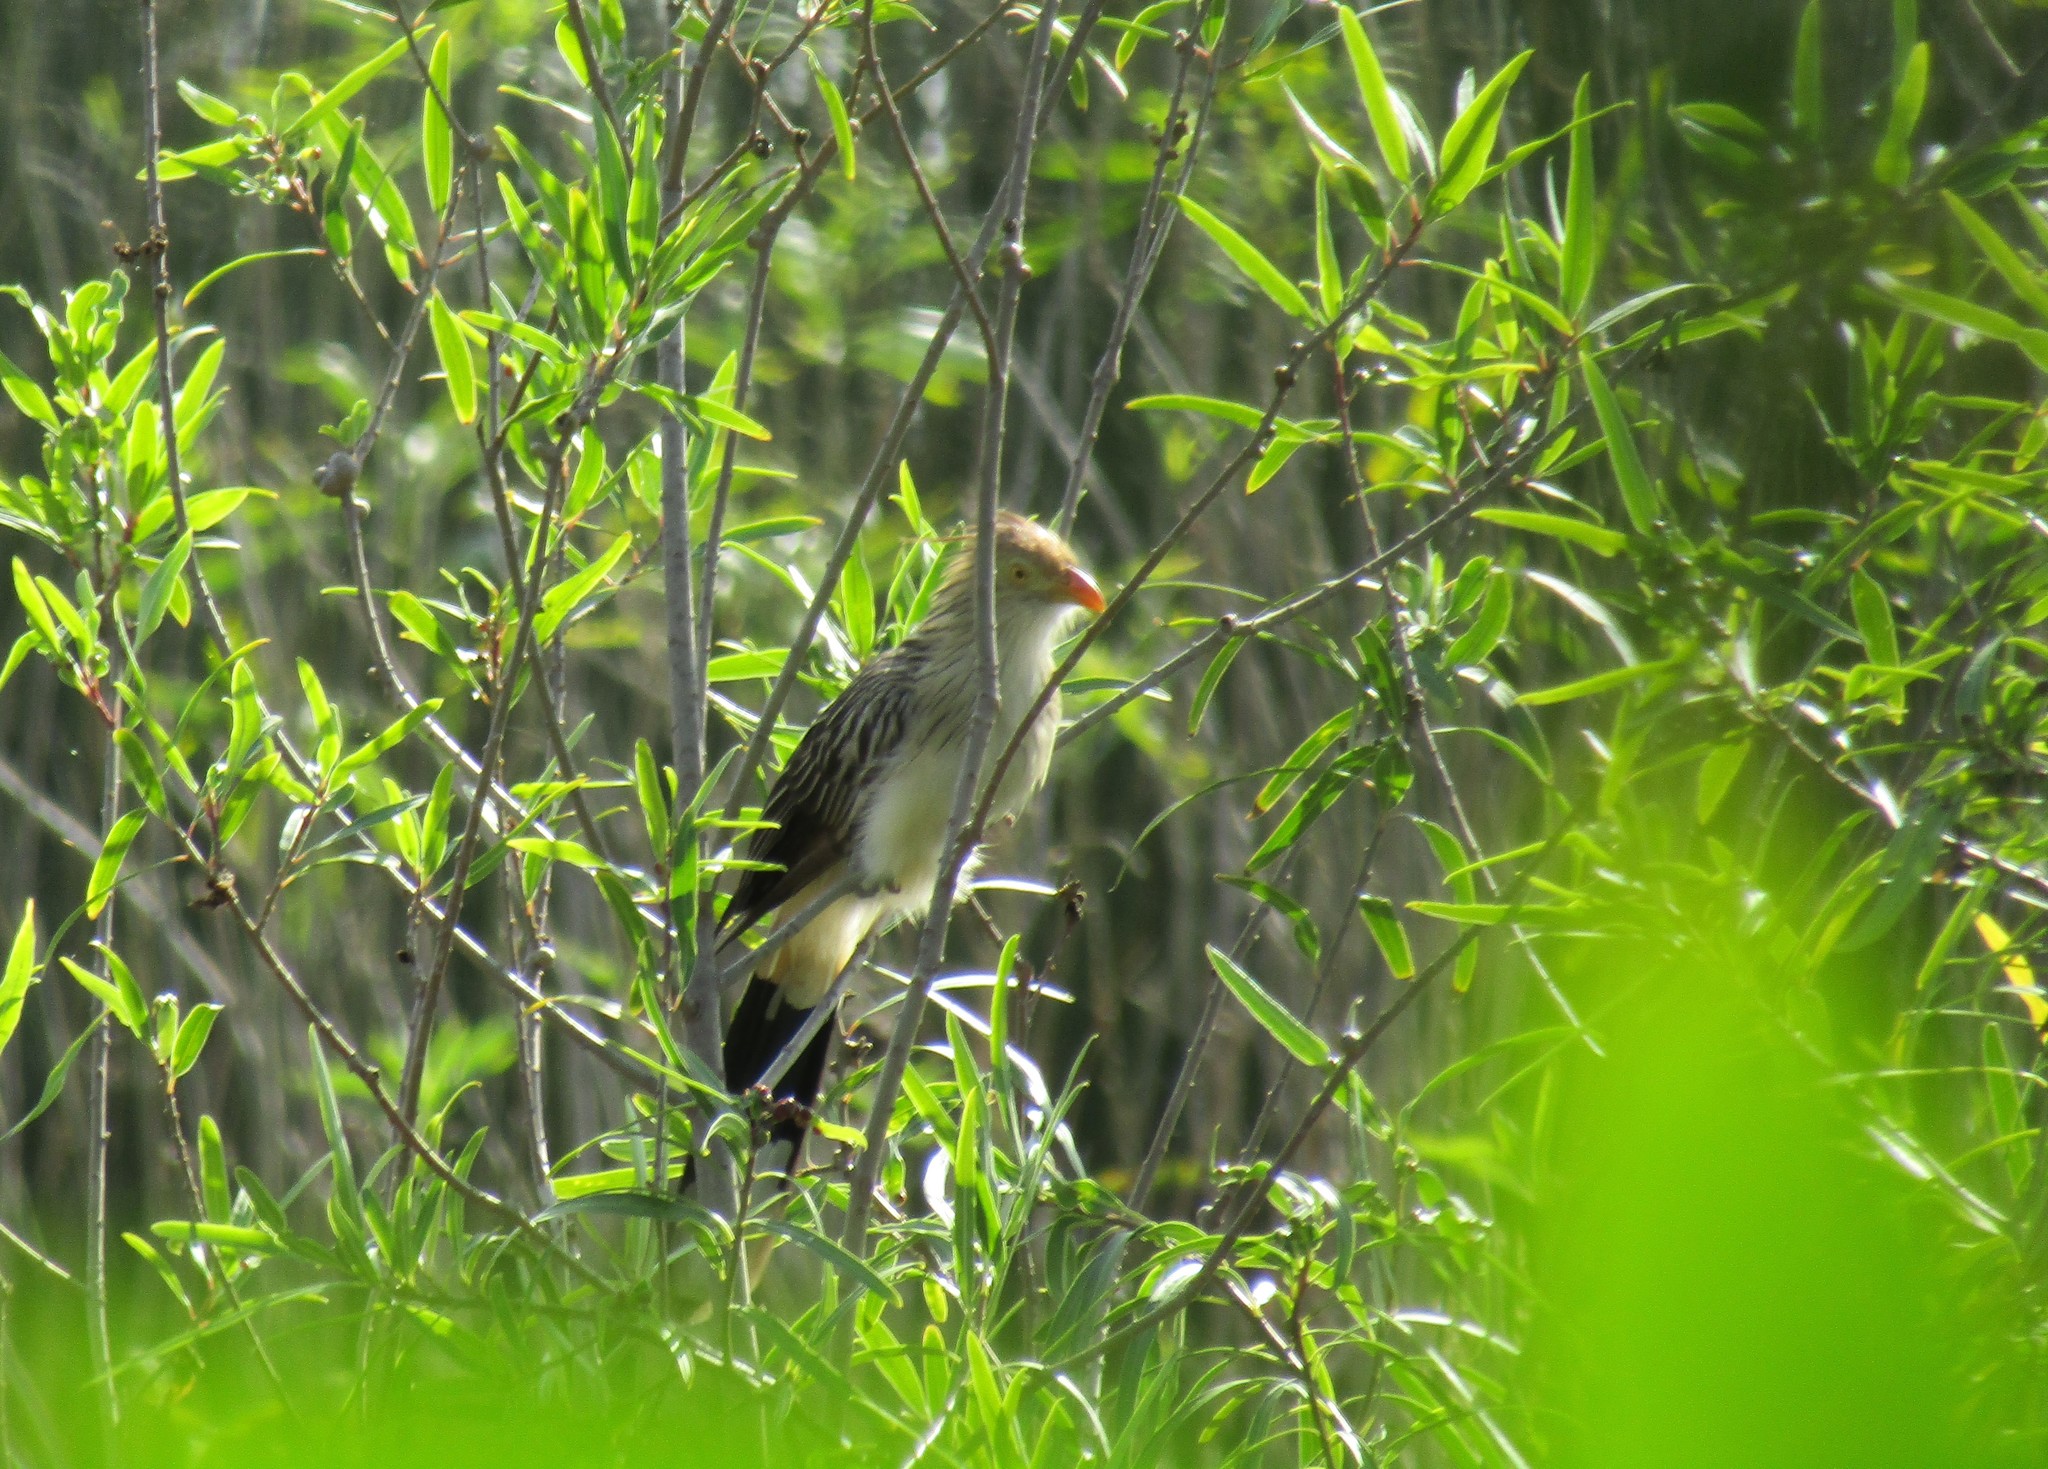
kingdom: Animalia
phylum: Chordata
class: Aves
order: Cuculiformes
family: Cuculidae
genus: Guira
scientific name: Guira guira
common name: Guira cuckoo
